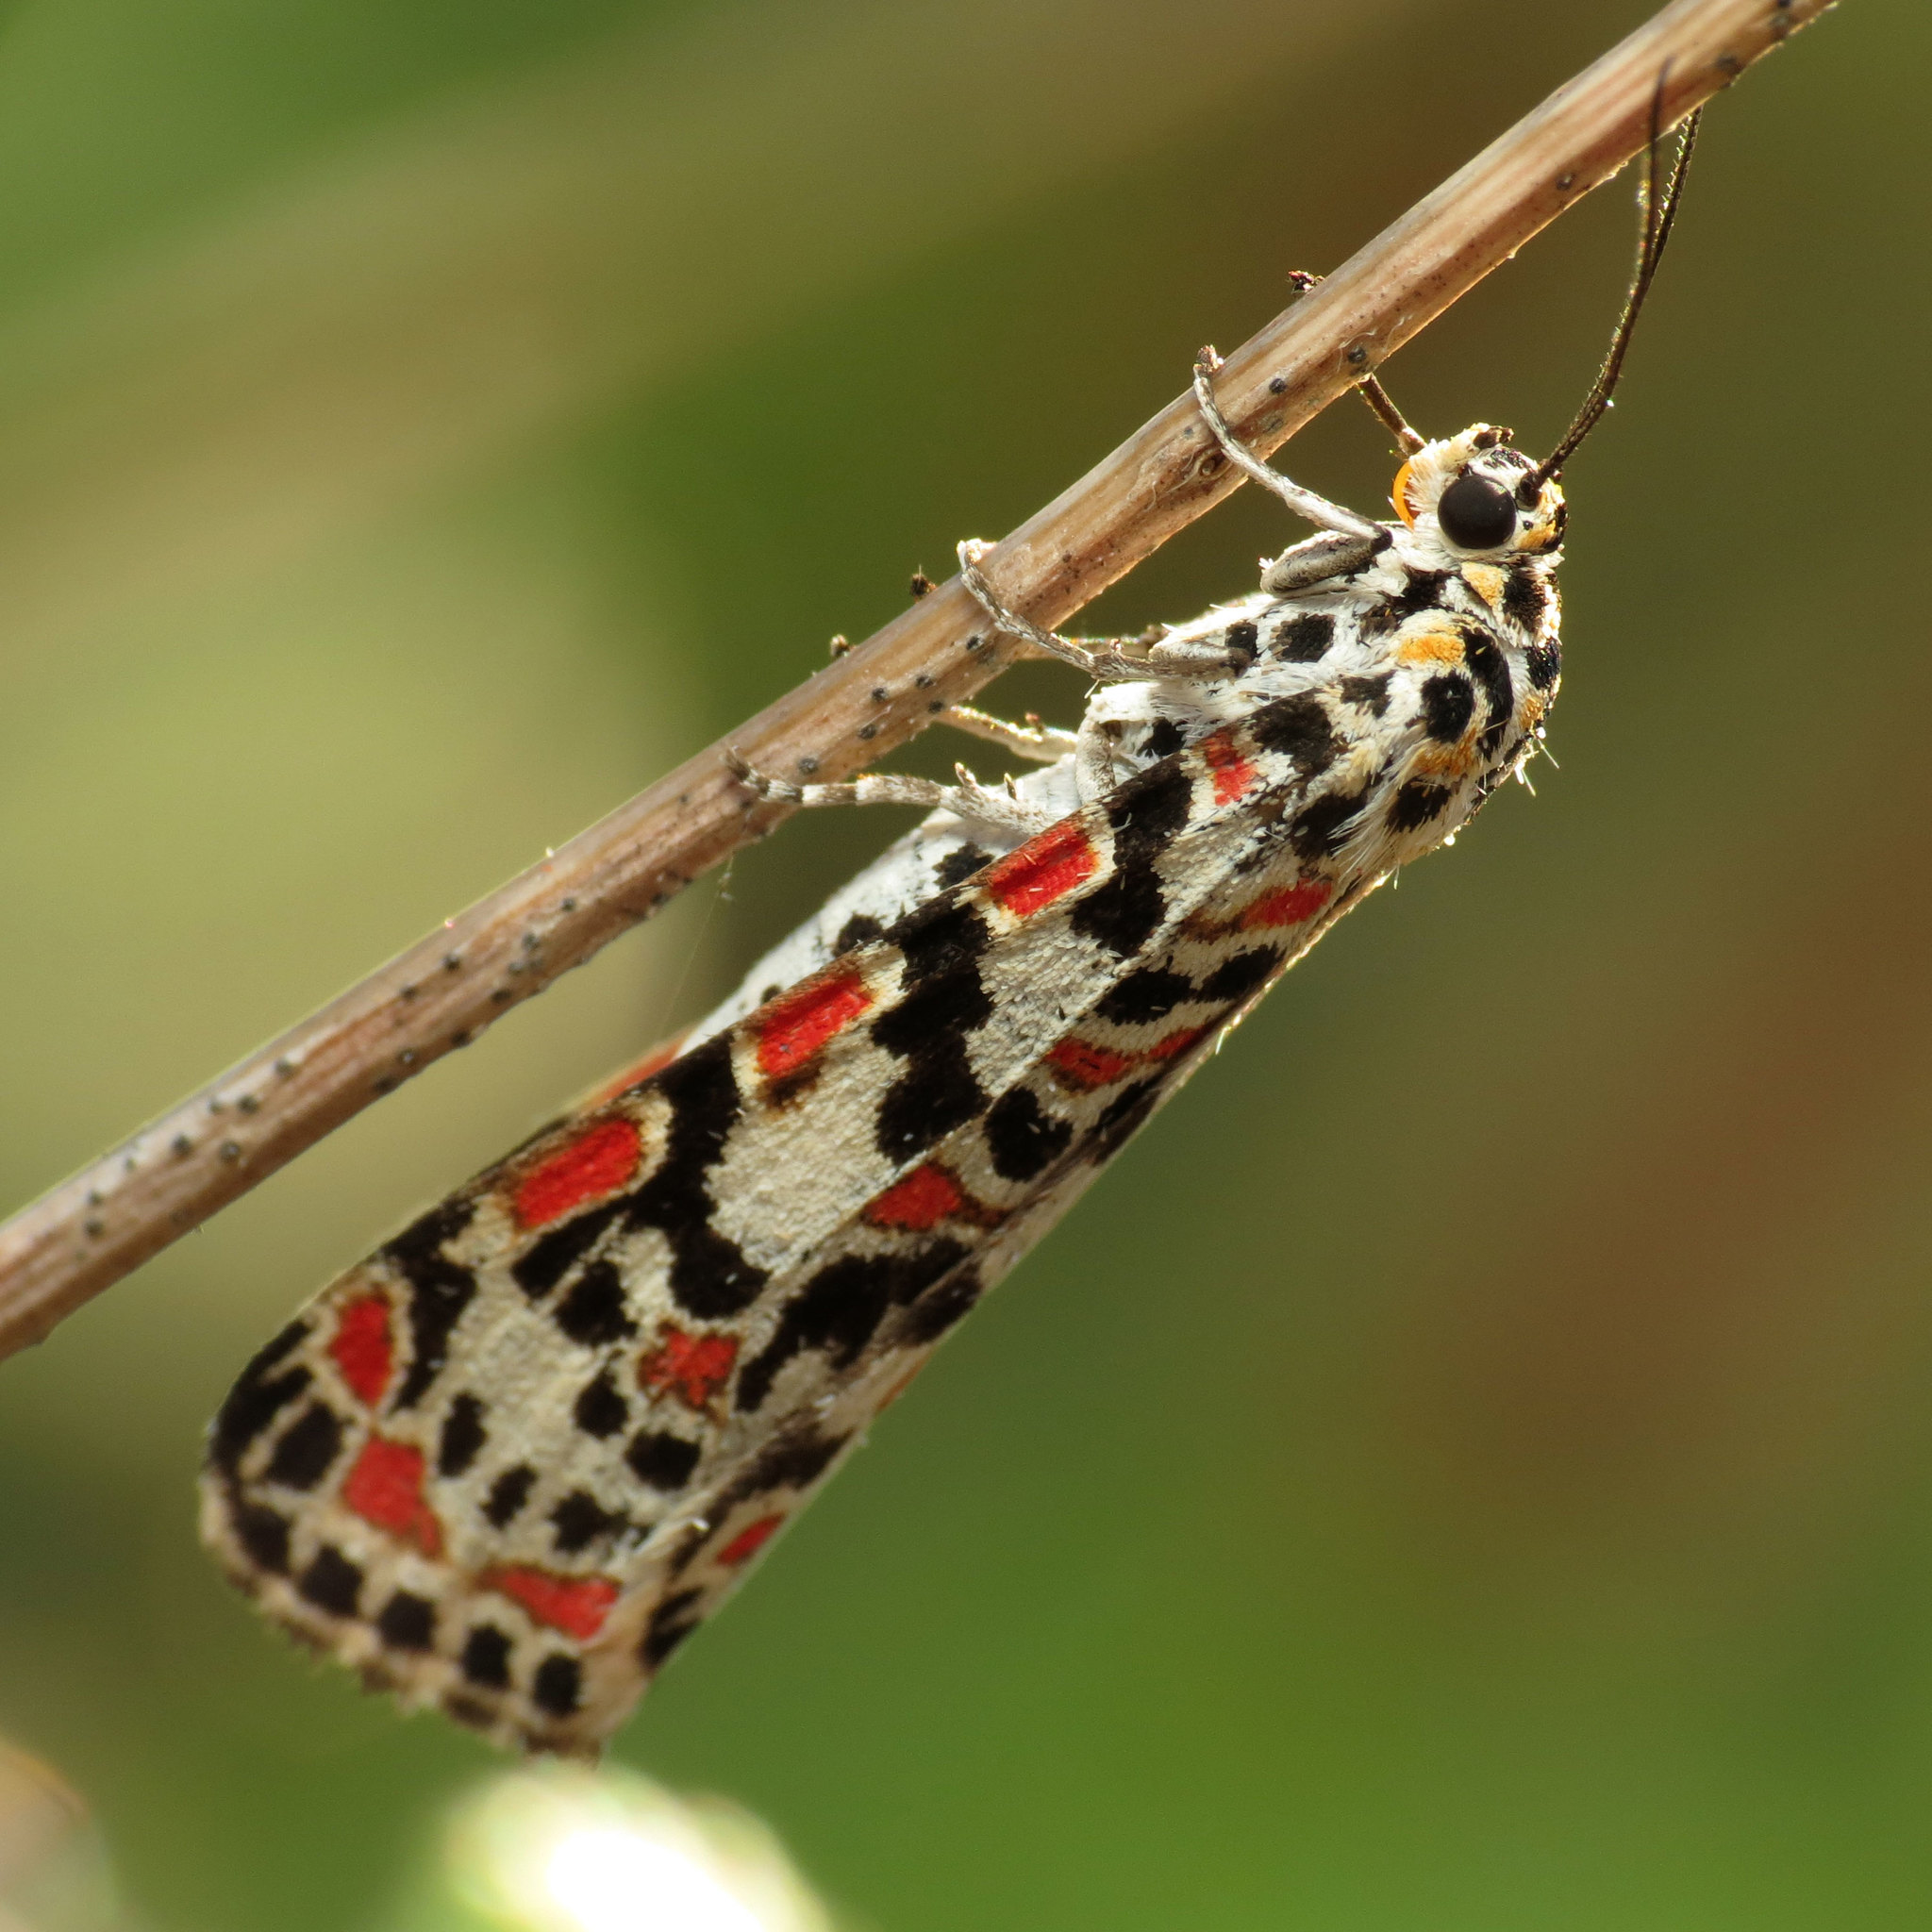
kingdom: Animalia
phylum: Arthropoda
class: Insecta
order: Lepidoptera
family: Erebidae
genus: Utetheisa
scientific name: Utetheisa pulchella
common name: Crimson speckled
